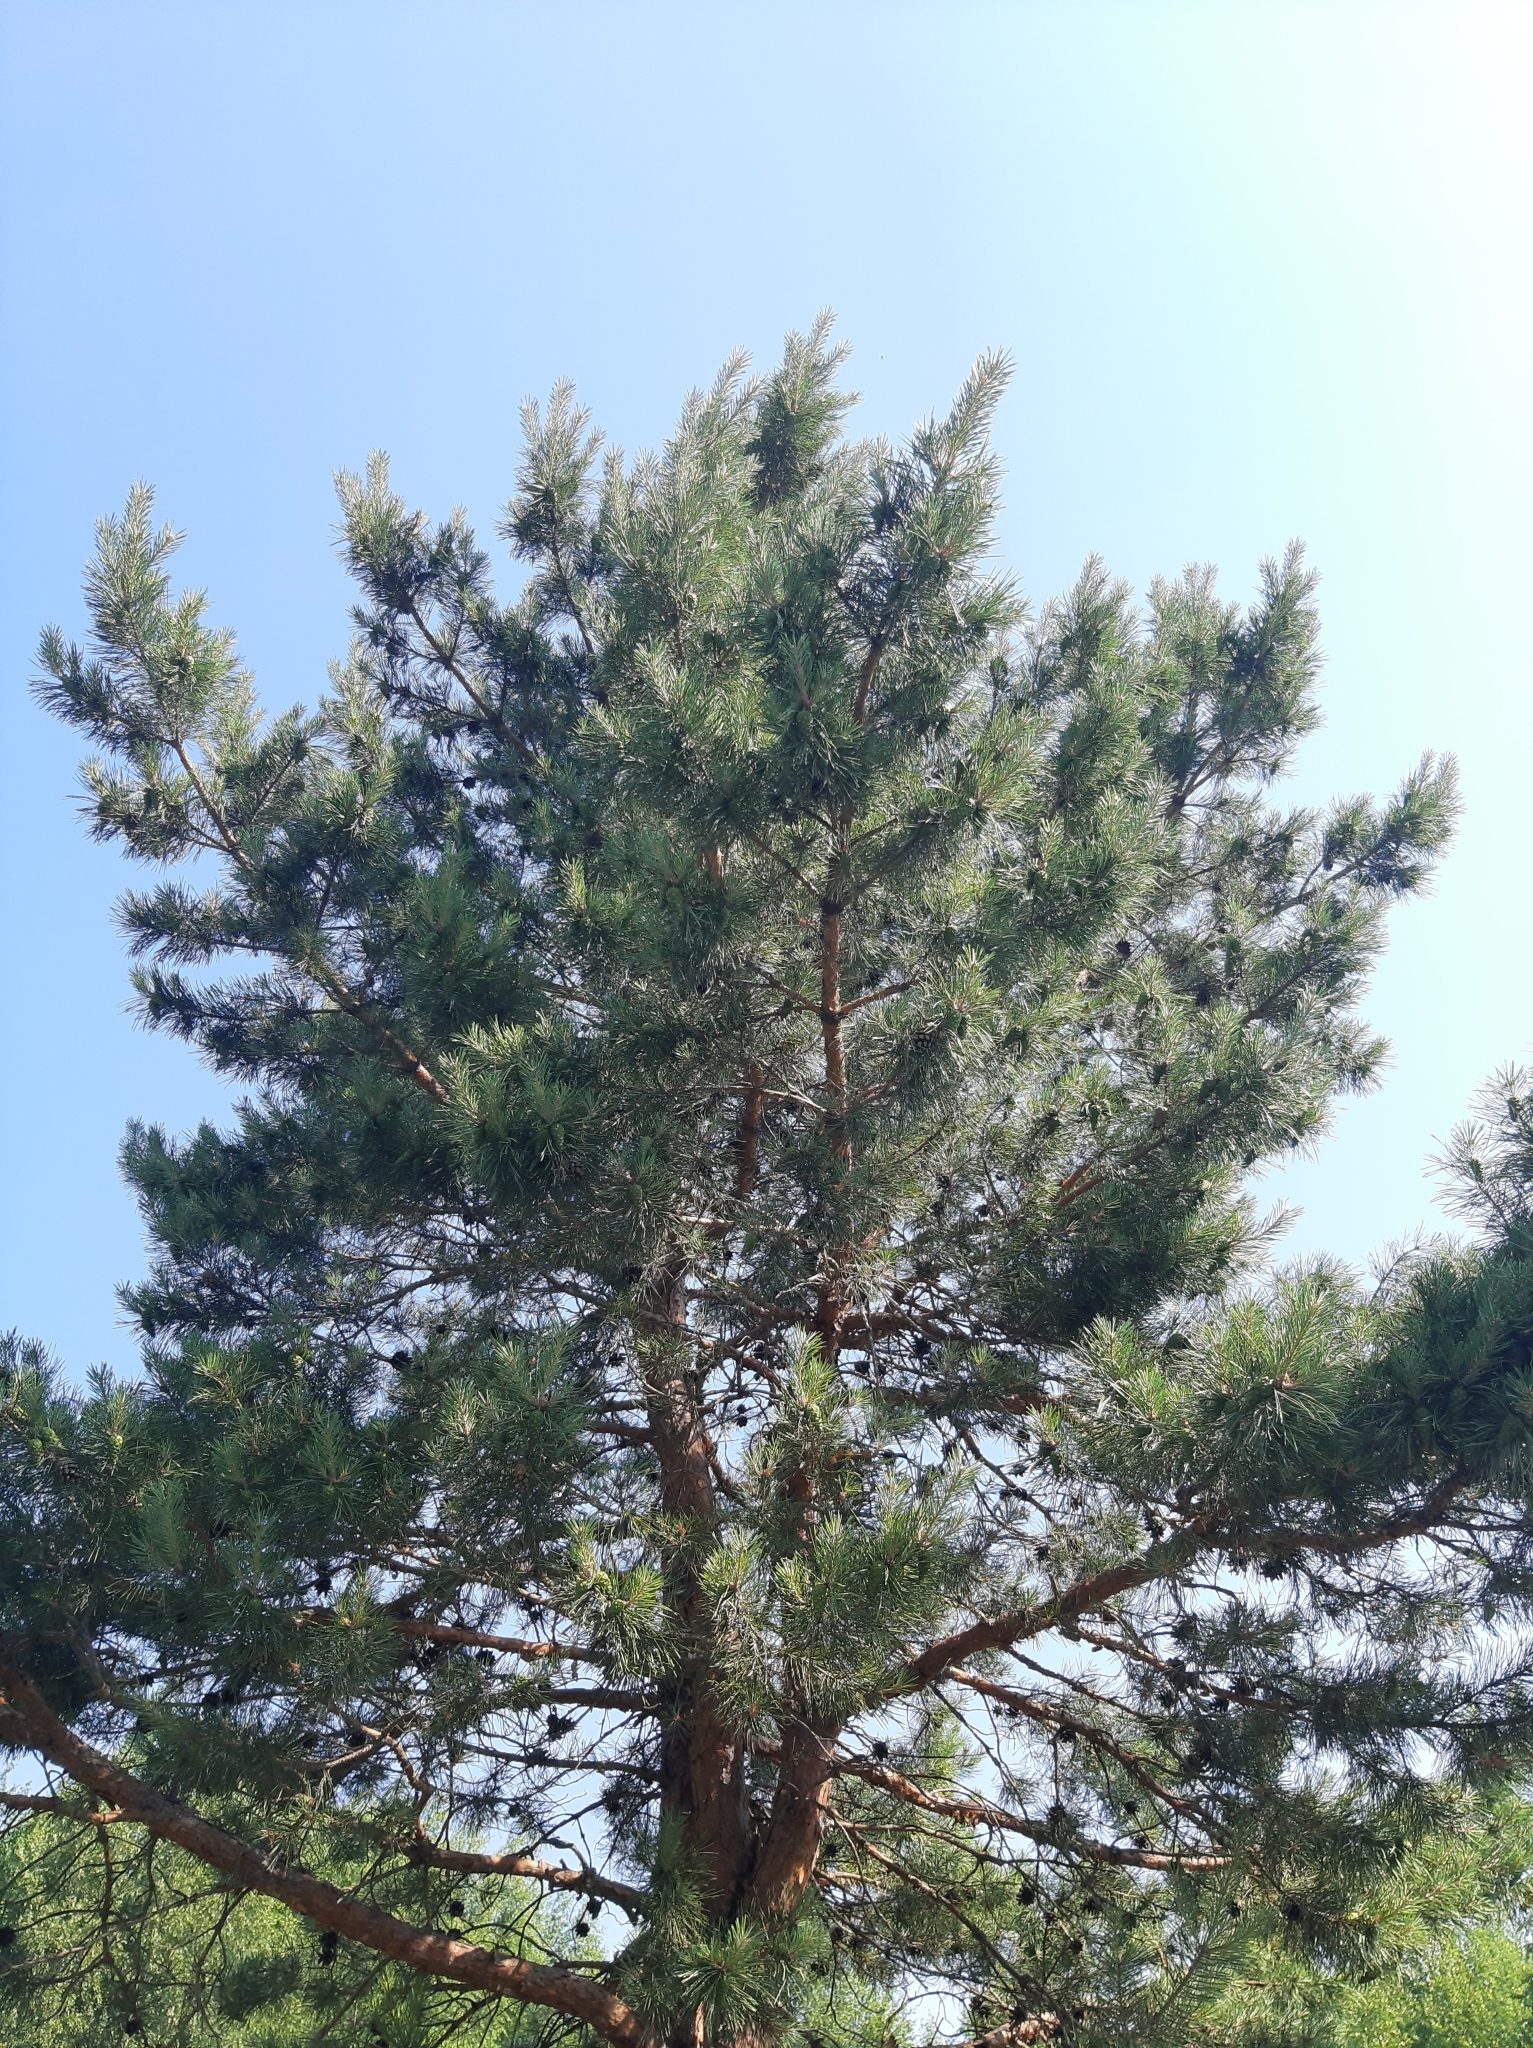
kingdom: Plantae
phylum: Tracheophyta
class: Pinopsida
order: Pinales
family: Pinaceae
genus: Pinus
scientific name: Pinus sylvestris
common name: Scots pine
